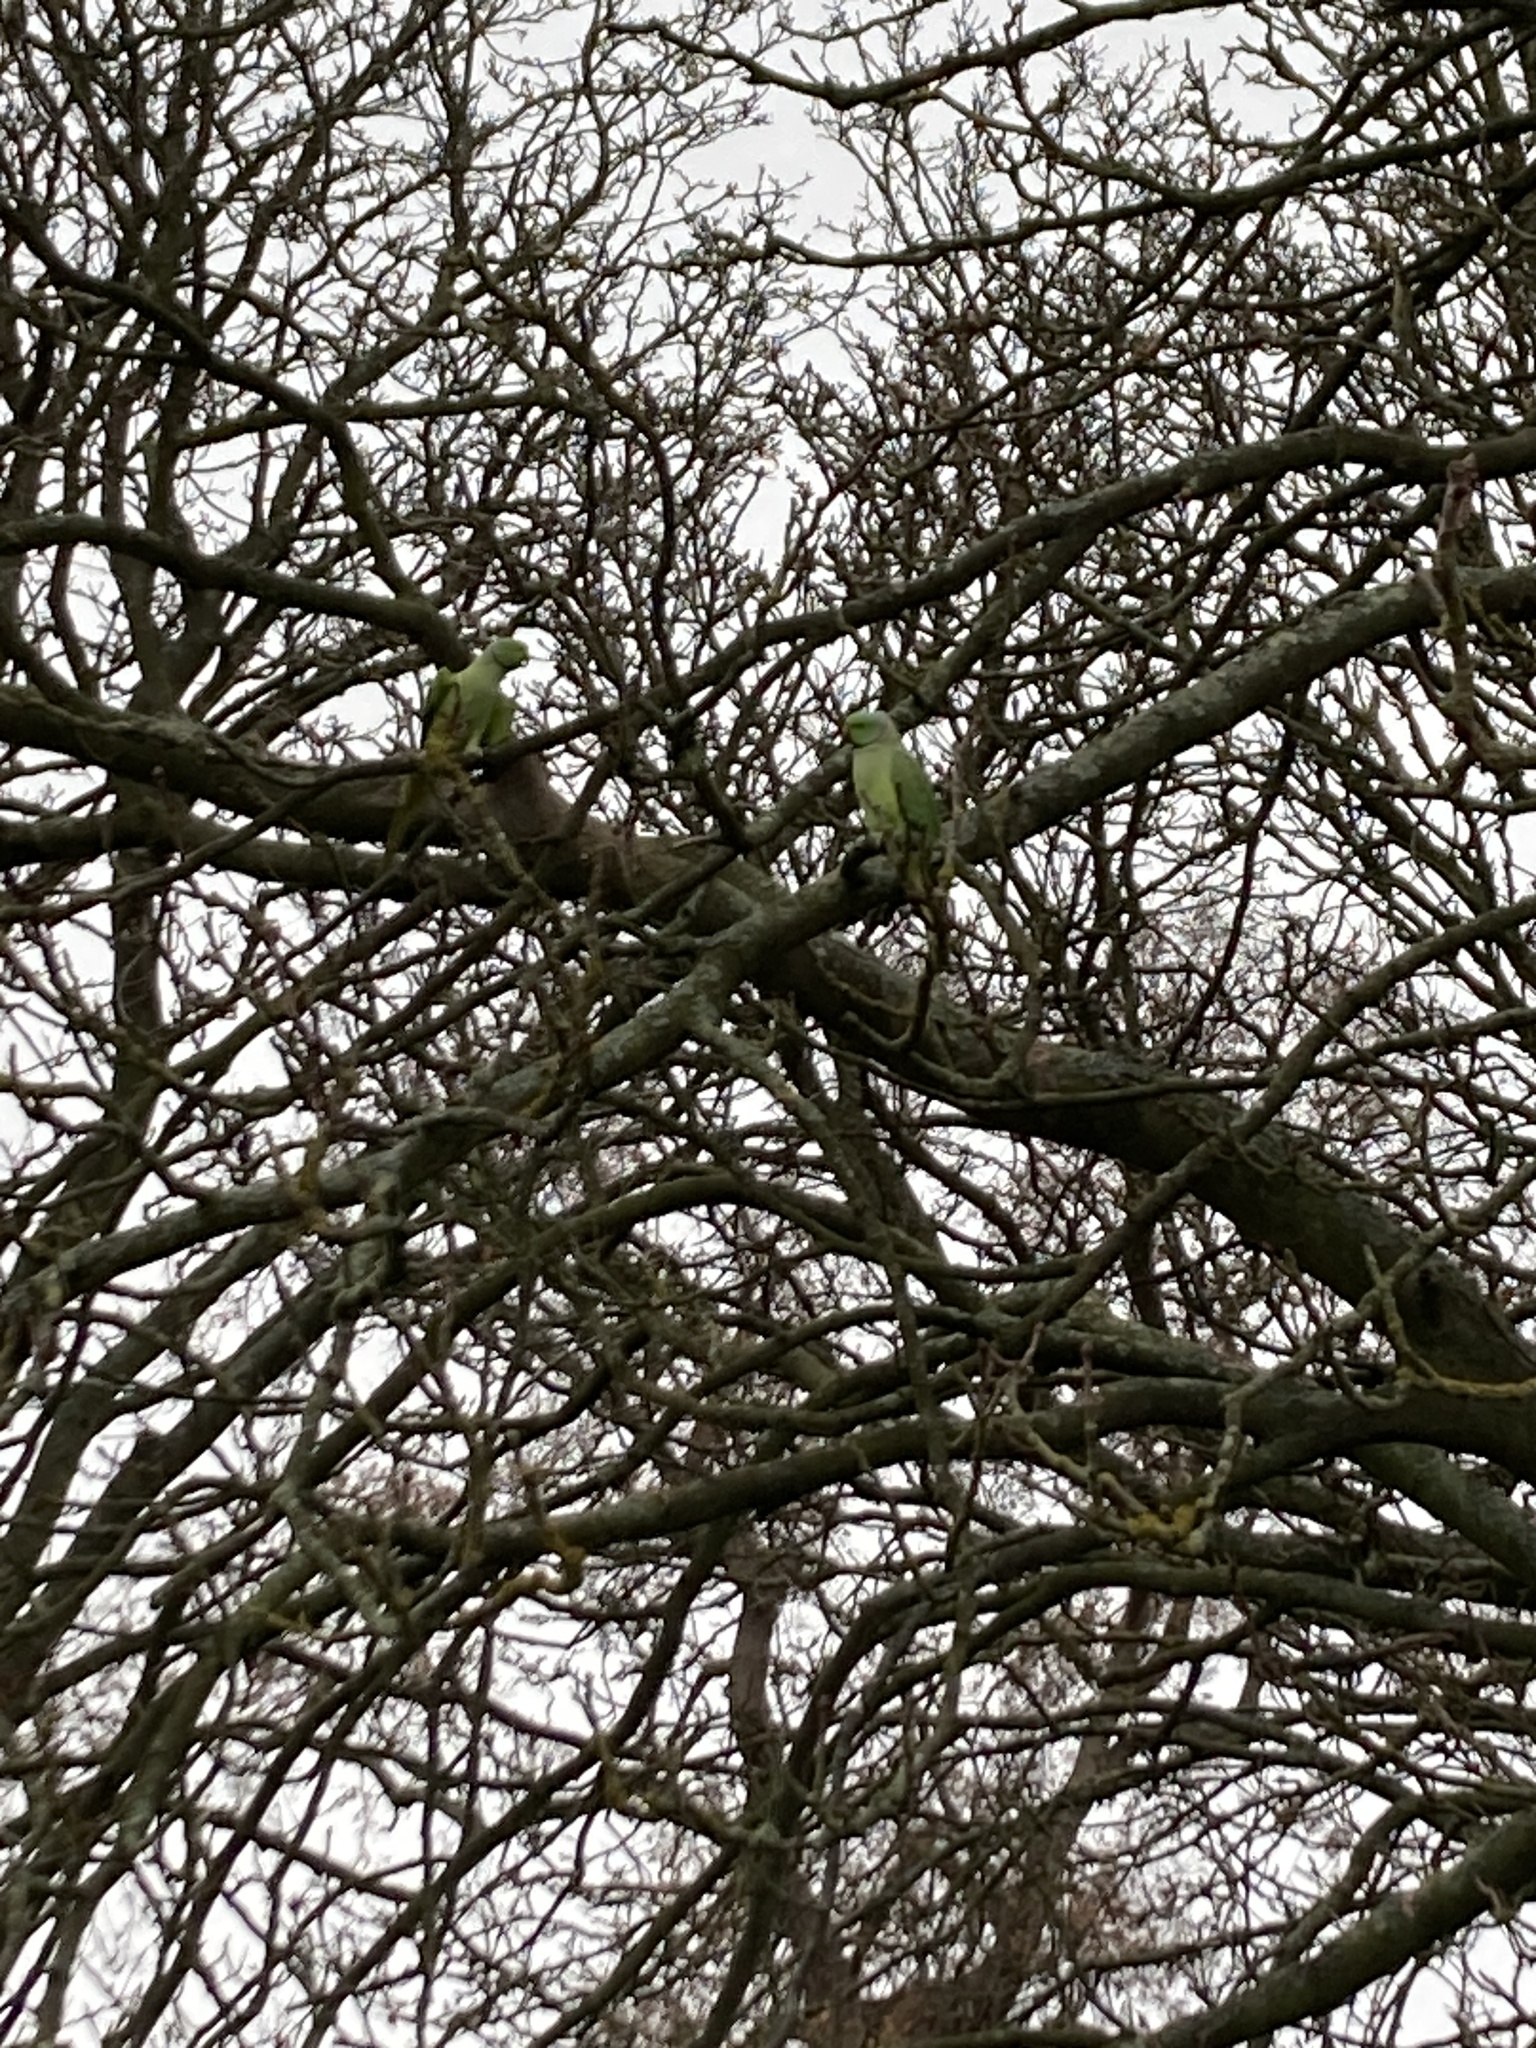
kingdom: Animalia
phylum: Chordata
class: Aves
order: Psittaciformes
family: Psittacidae
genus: Psittacula
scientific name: Psittacula krameri
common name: Rose-ringed parakeet
